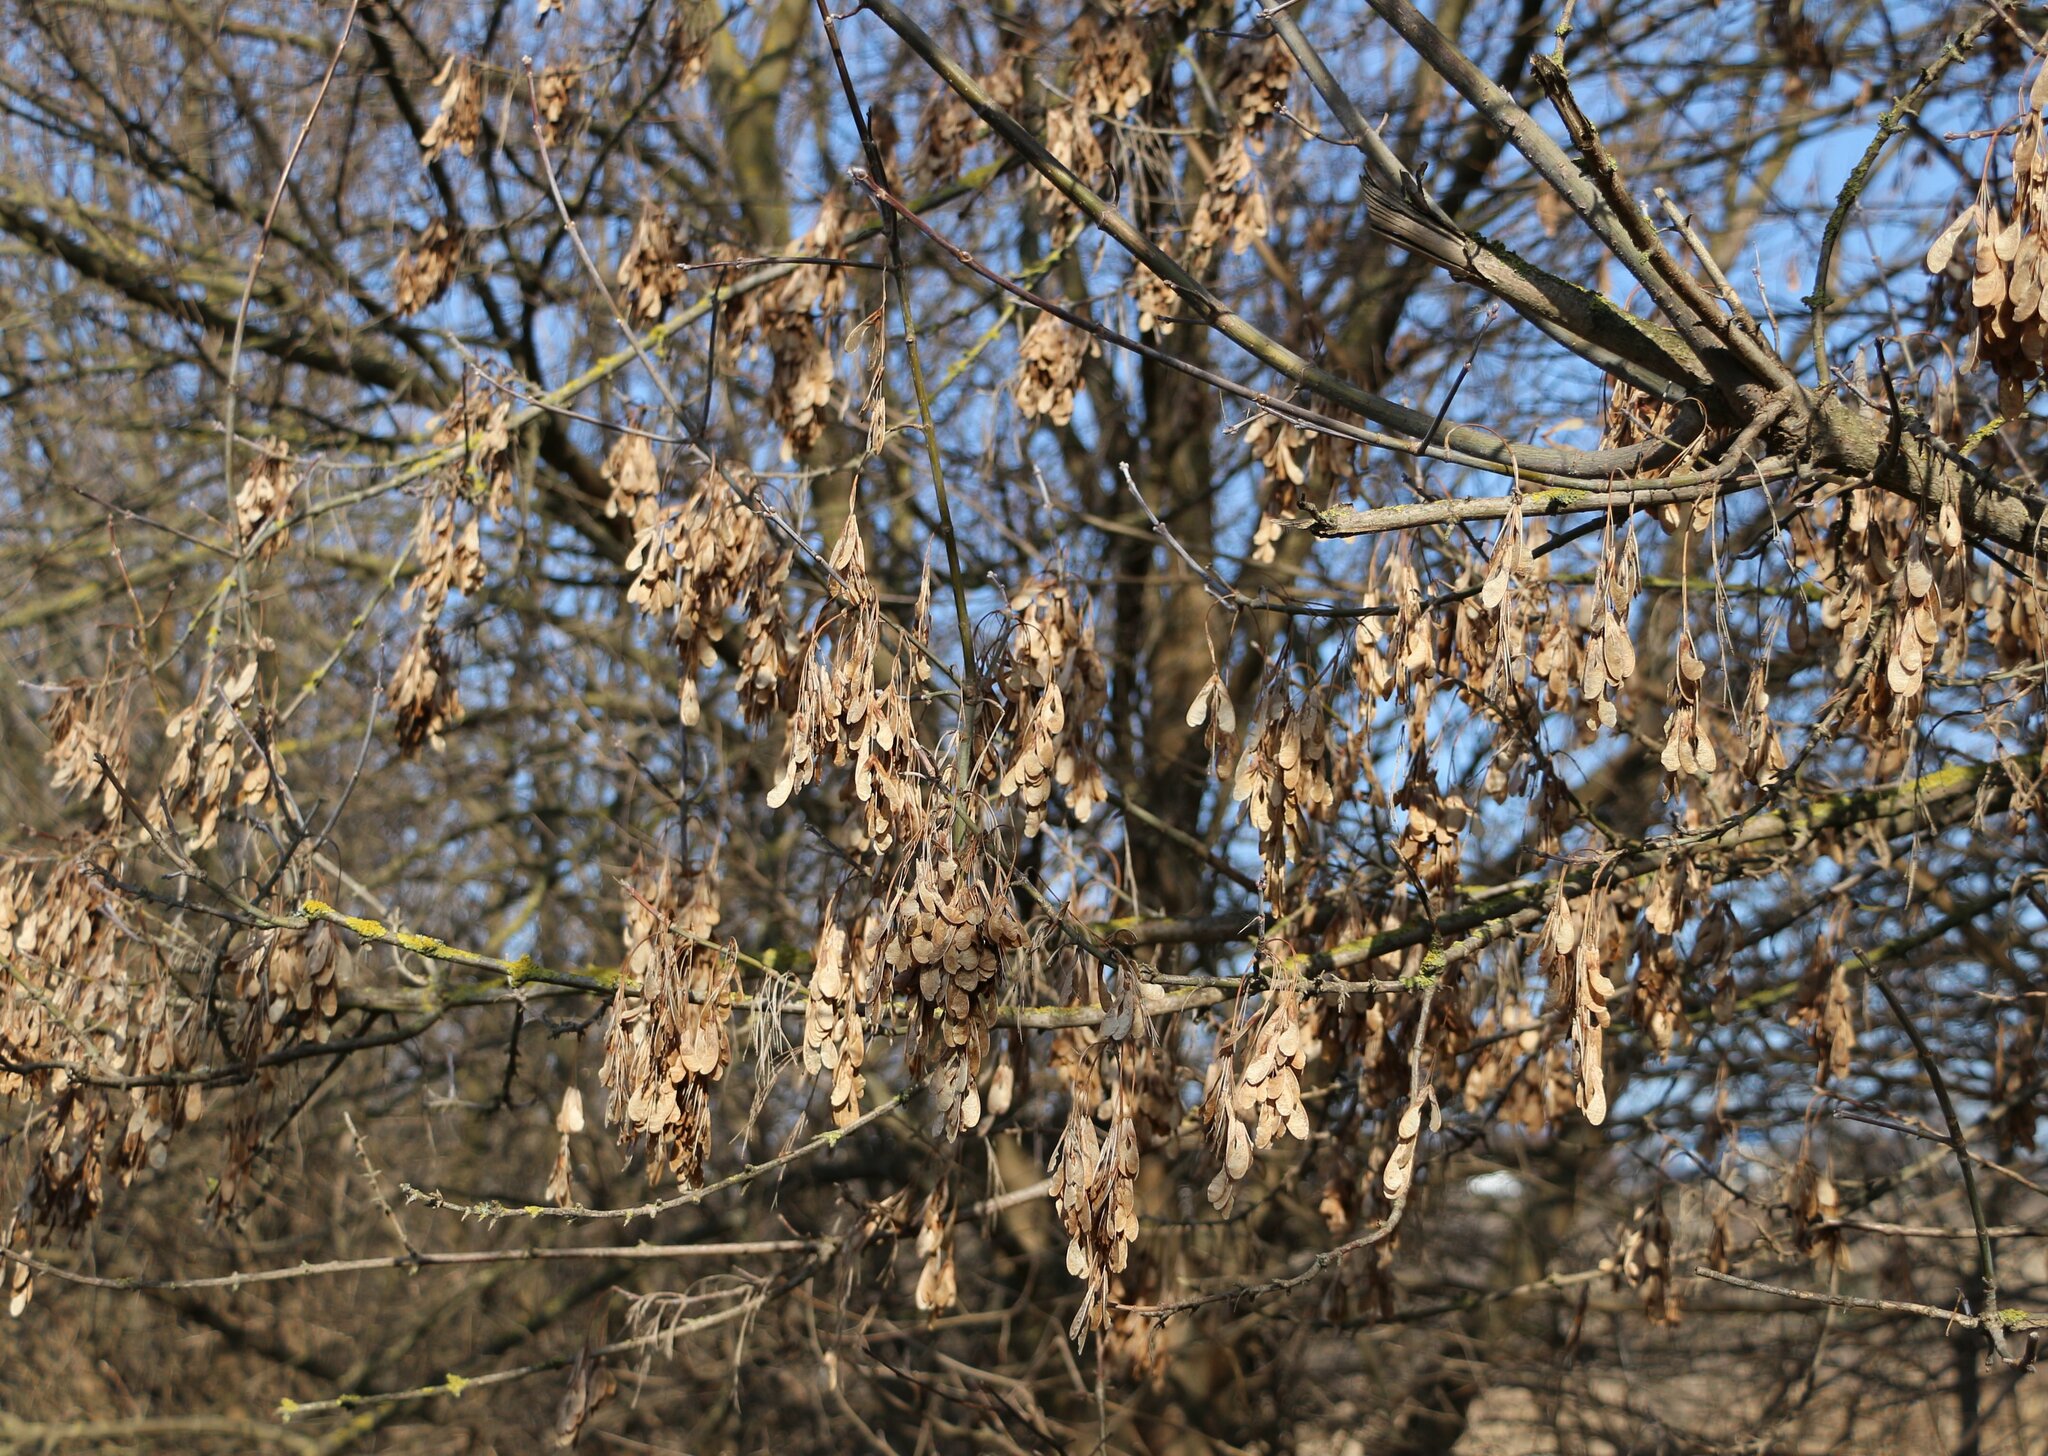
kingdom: Plantae
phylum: Tracheophyta
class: Magnoliopsida
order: Sapindales
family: Sapindaceae
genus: Acer
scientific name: Acer negundo
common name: Ashleaf maple
